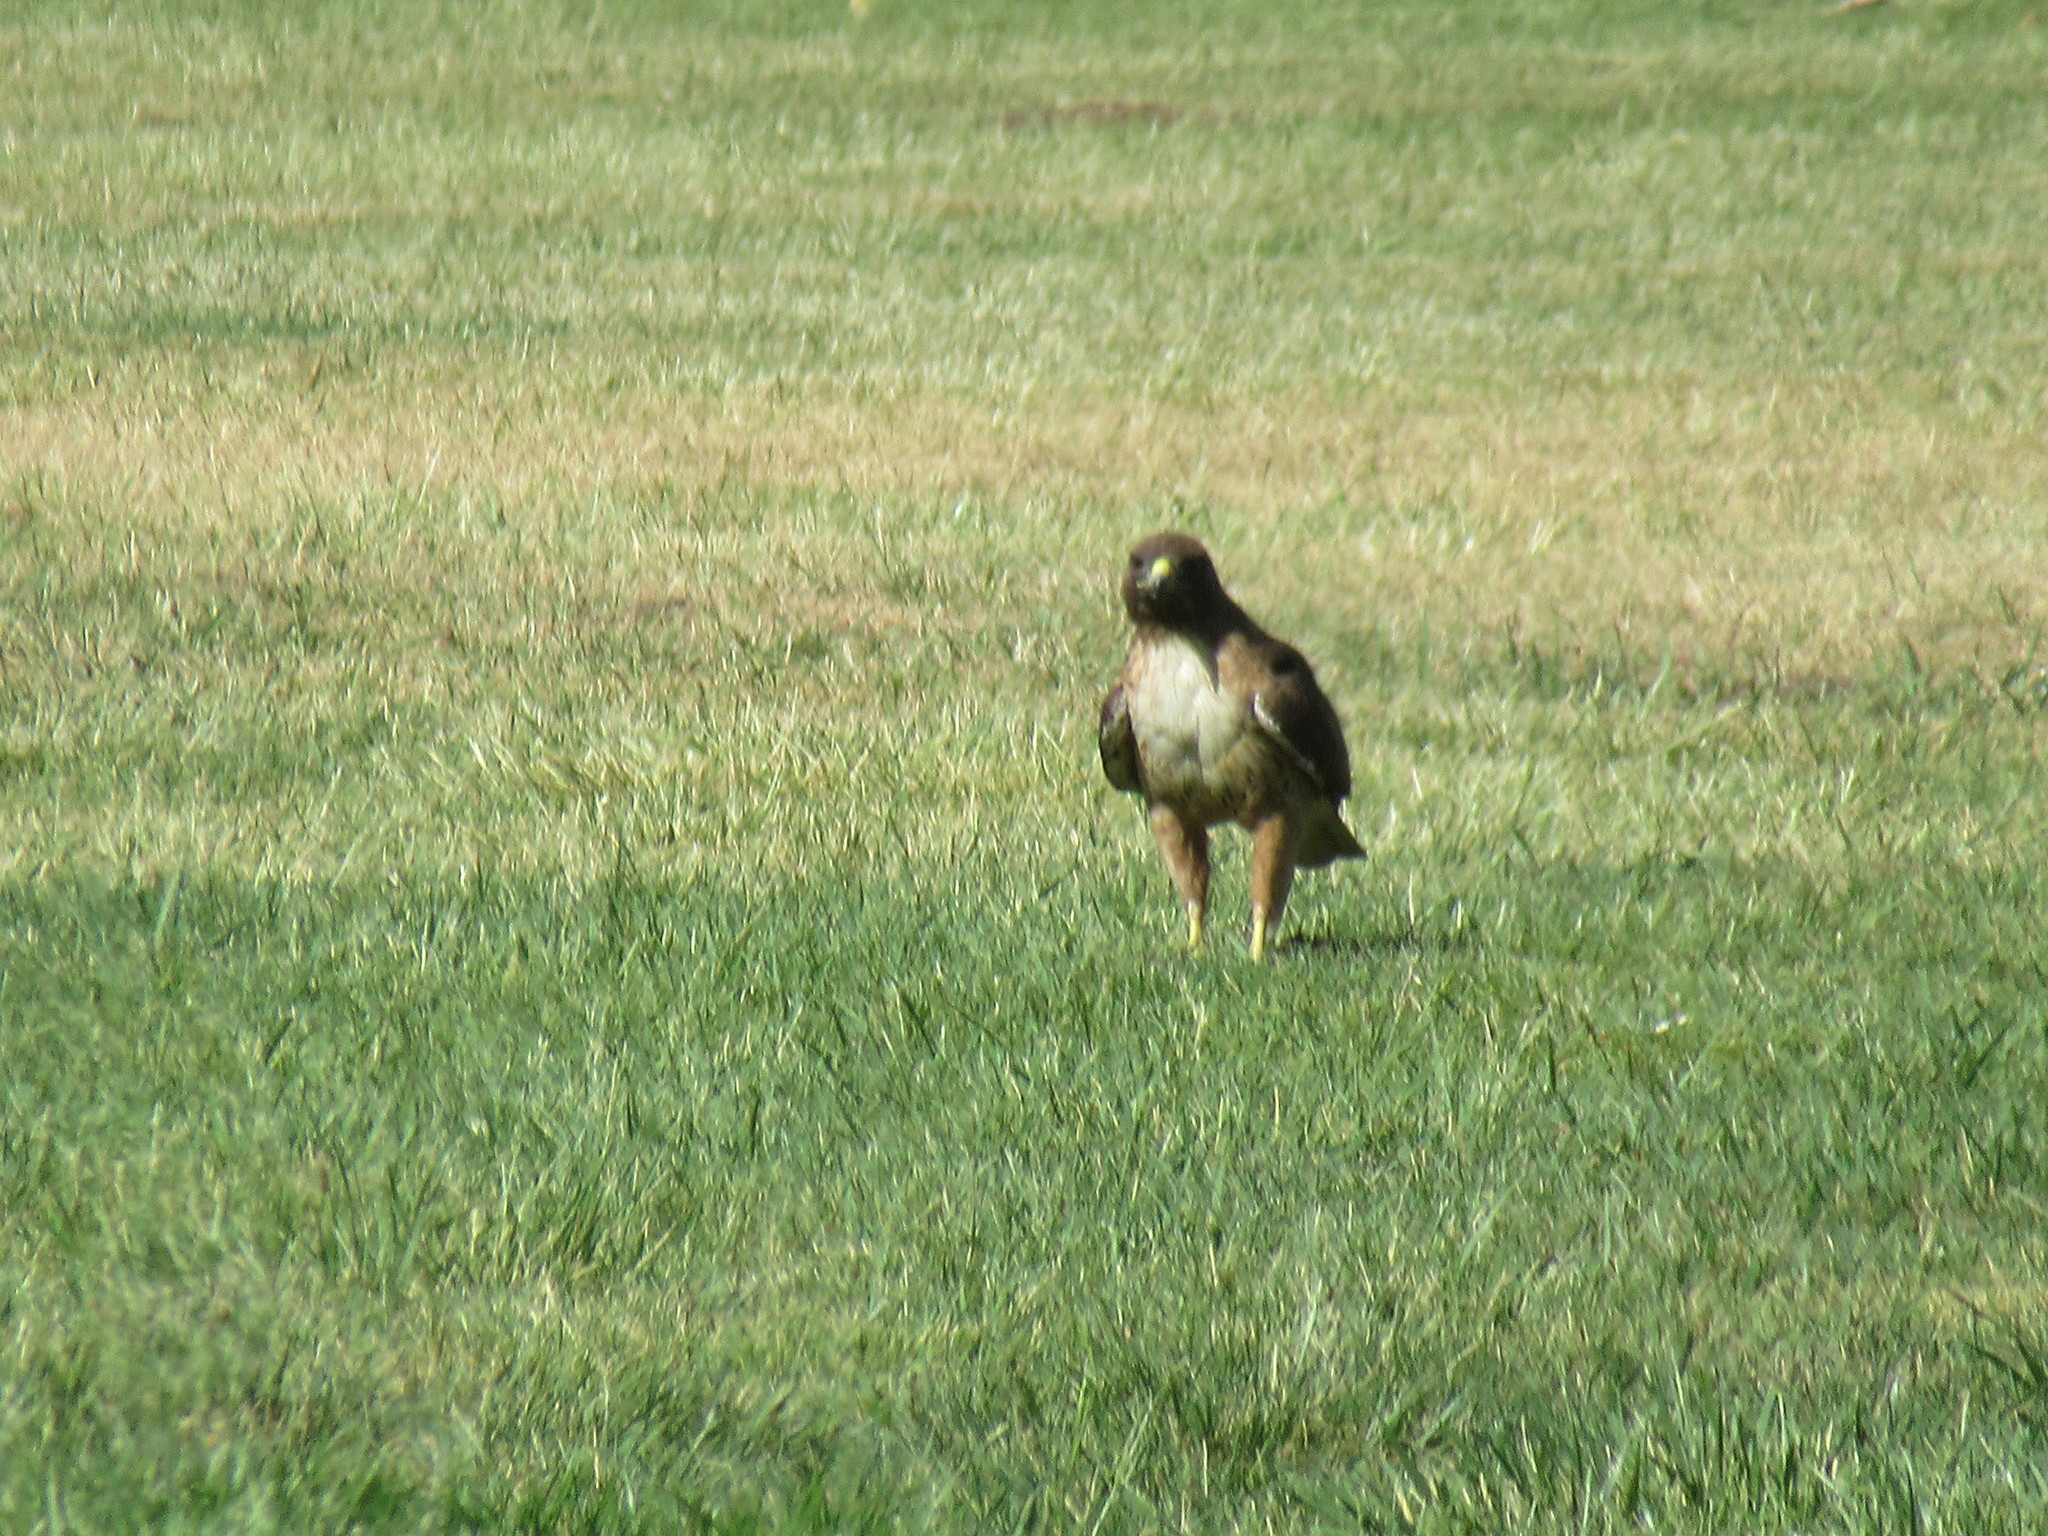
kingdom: Animalia
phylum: Chordata
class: Aves
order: Accipitriformes
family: Accipitridae
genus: Buteo
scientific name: Buteo jamaicensis
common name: Red-tailed hawk
